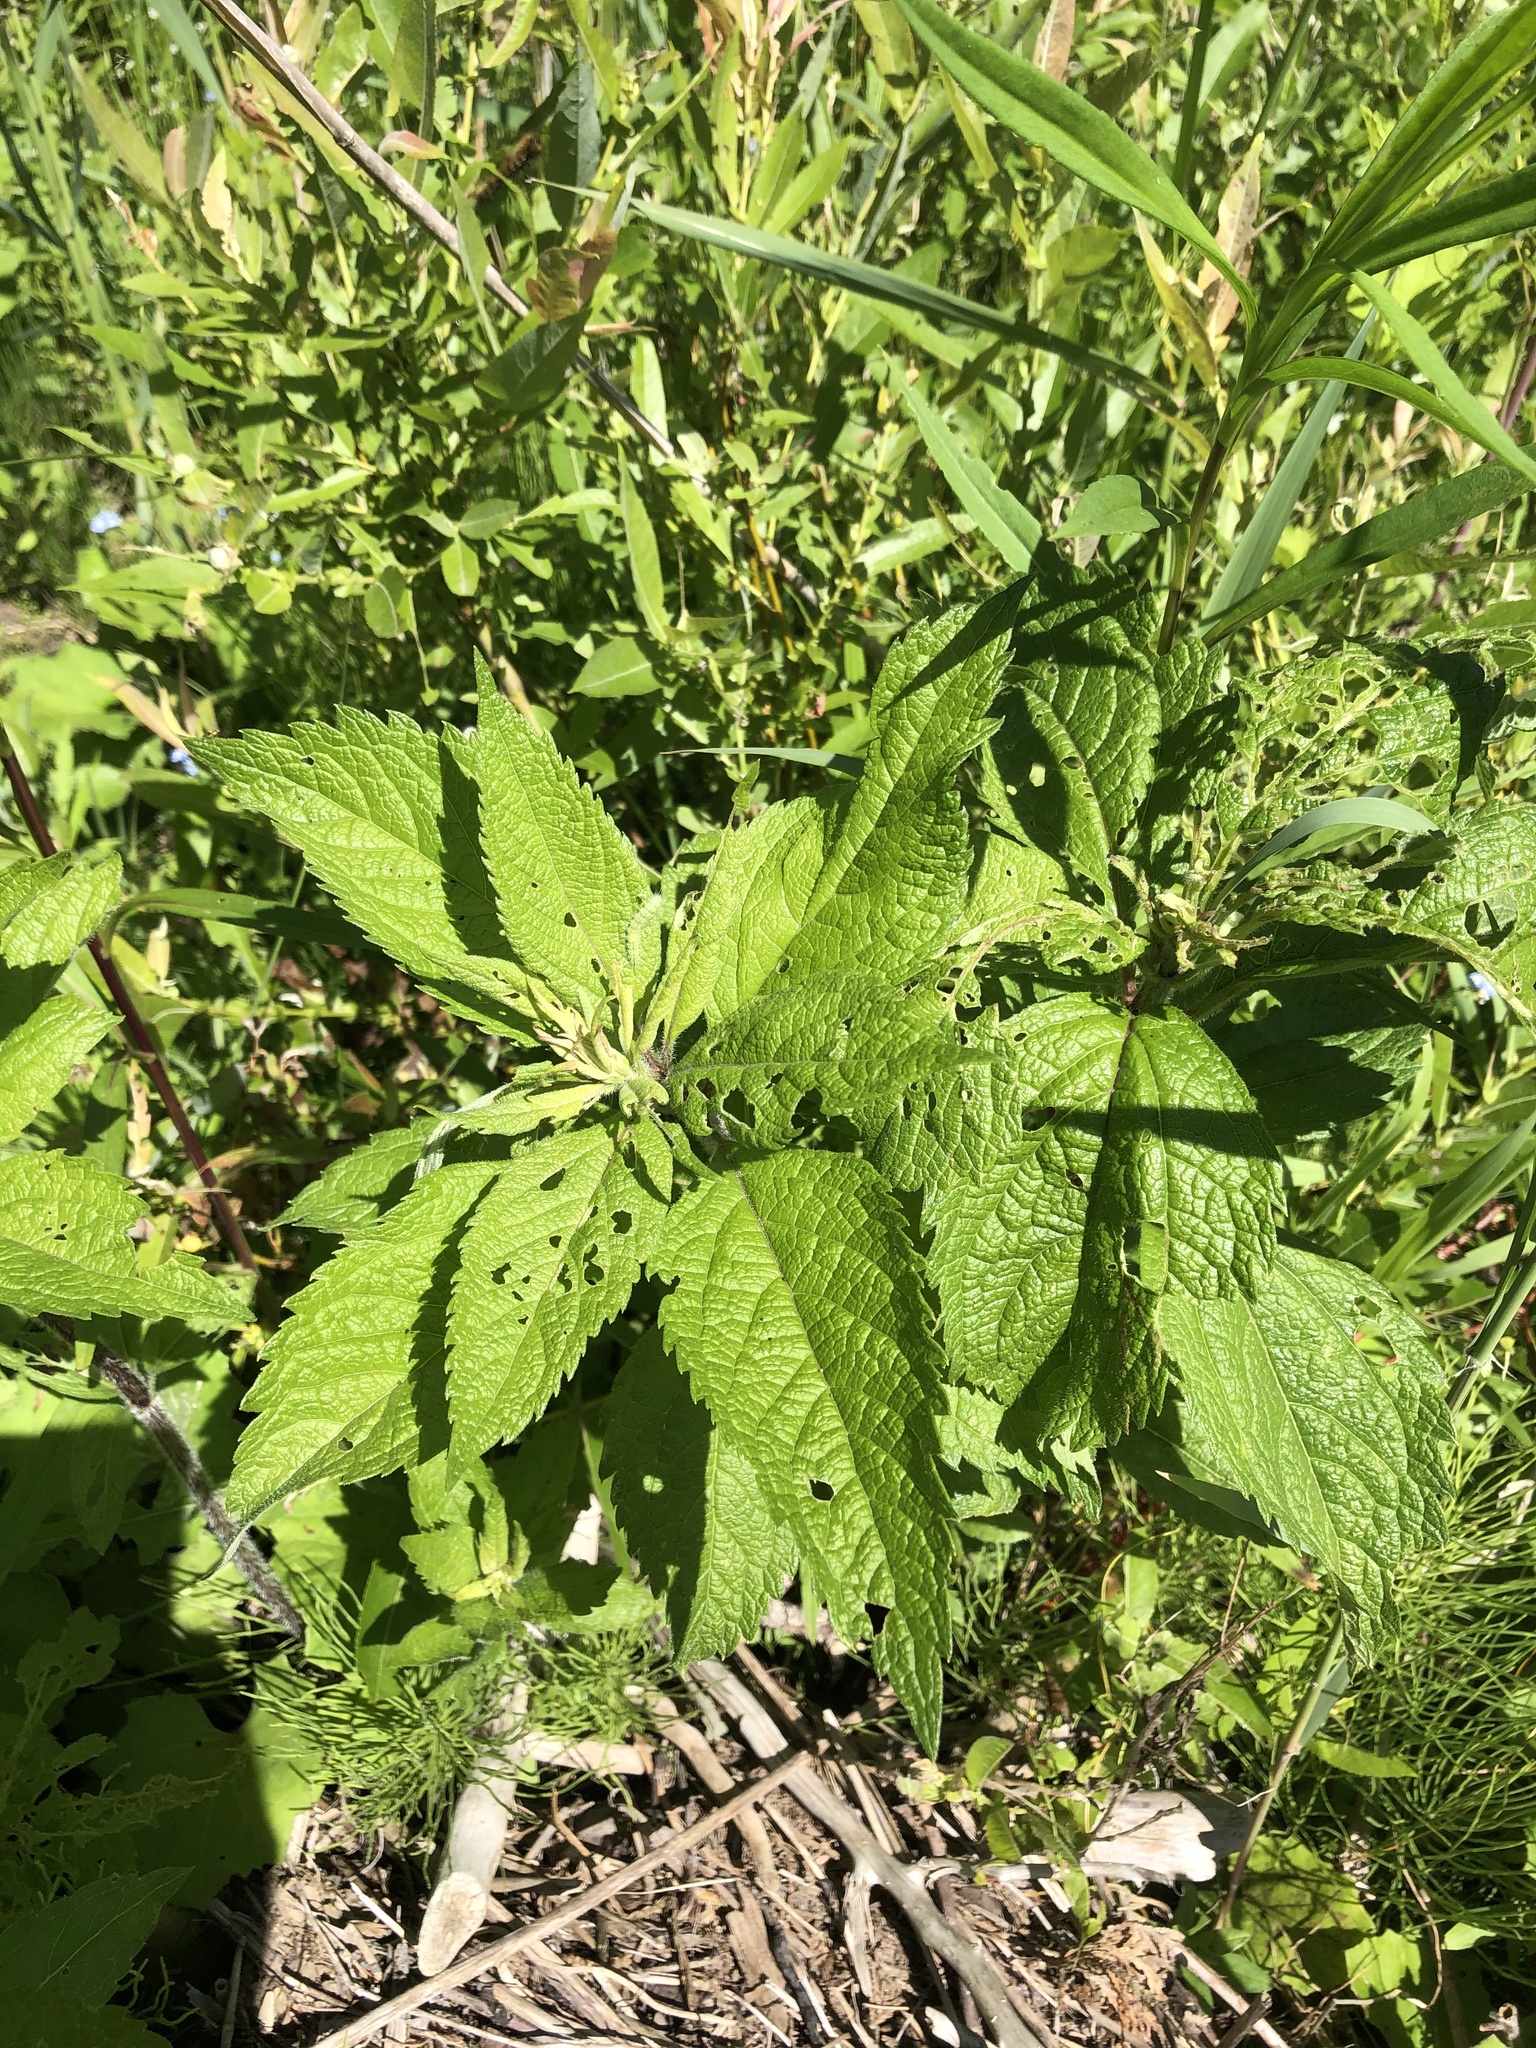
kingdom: Plantae
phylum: Tracheophyta
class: Magnoliopsida
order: Asterales
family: Asteraceae
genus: Eutrochium
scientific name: Eutrochium maculatum
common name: Spotted joe pye weed
